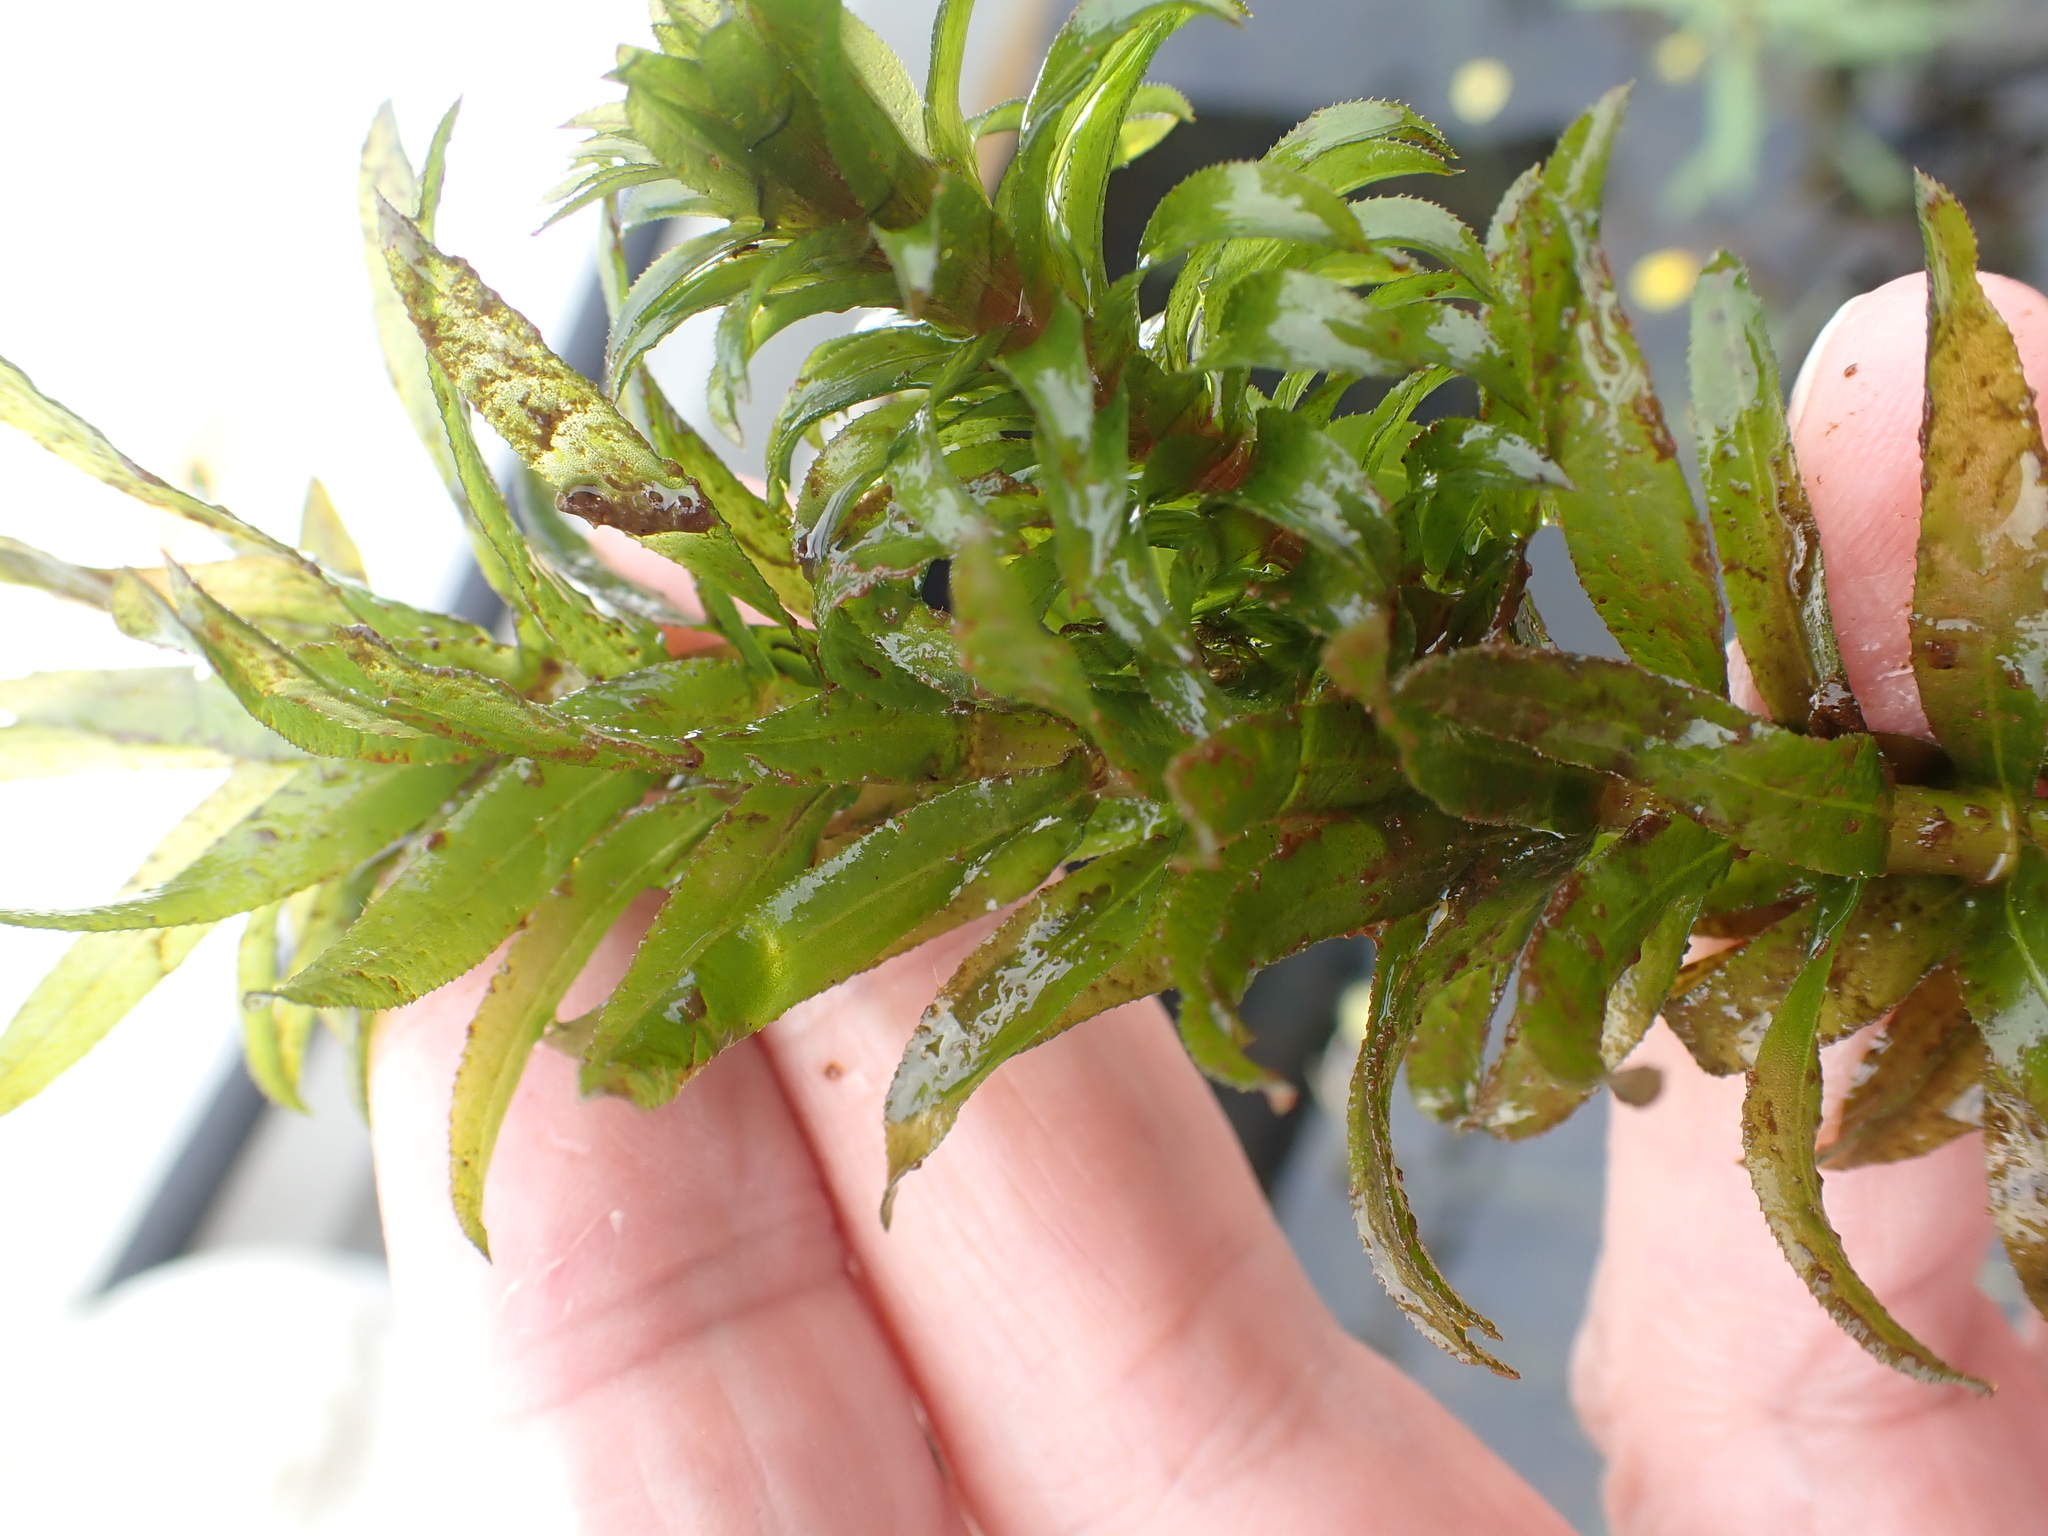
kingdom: Plantae
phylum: Tracheophyta
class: Liliopsida
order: Alismatales
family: Hydrocharitaceae
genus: Elodea
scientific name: Elodea densa
